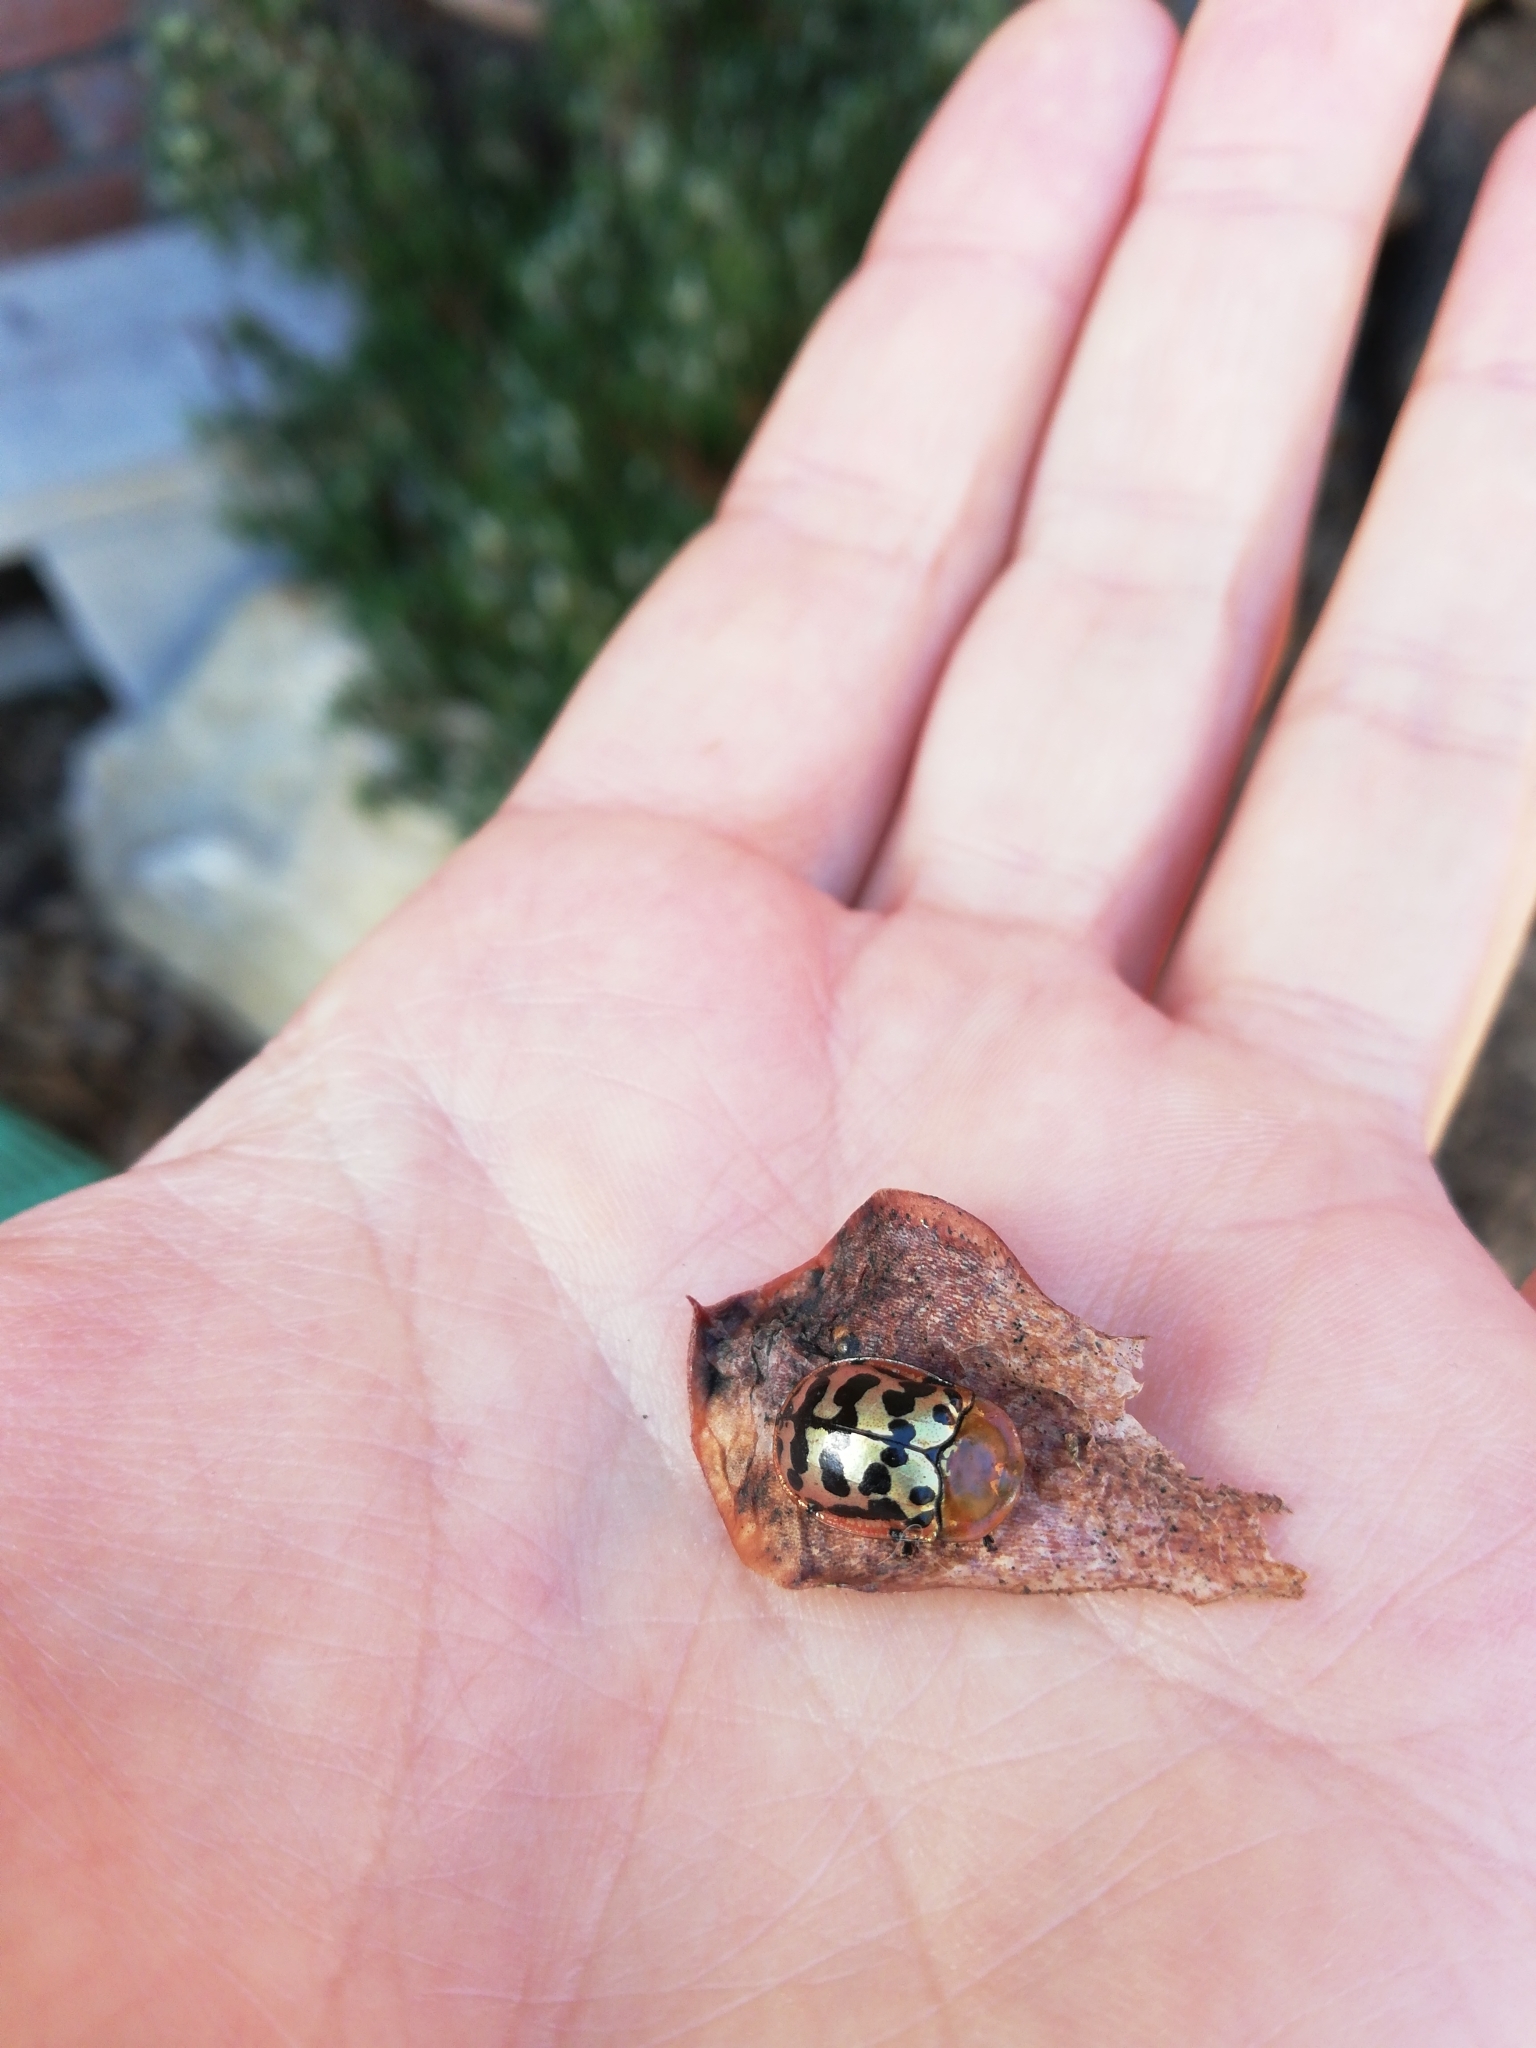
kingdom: Animalia
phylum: Arthropoda
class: Insecta
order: Coleoptera
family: Chrysomelidae
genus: Conchyloctenia
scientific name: Conchyloctenia punctata
